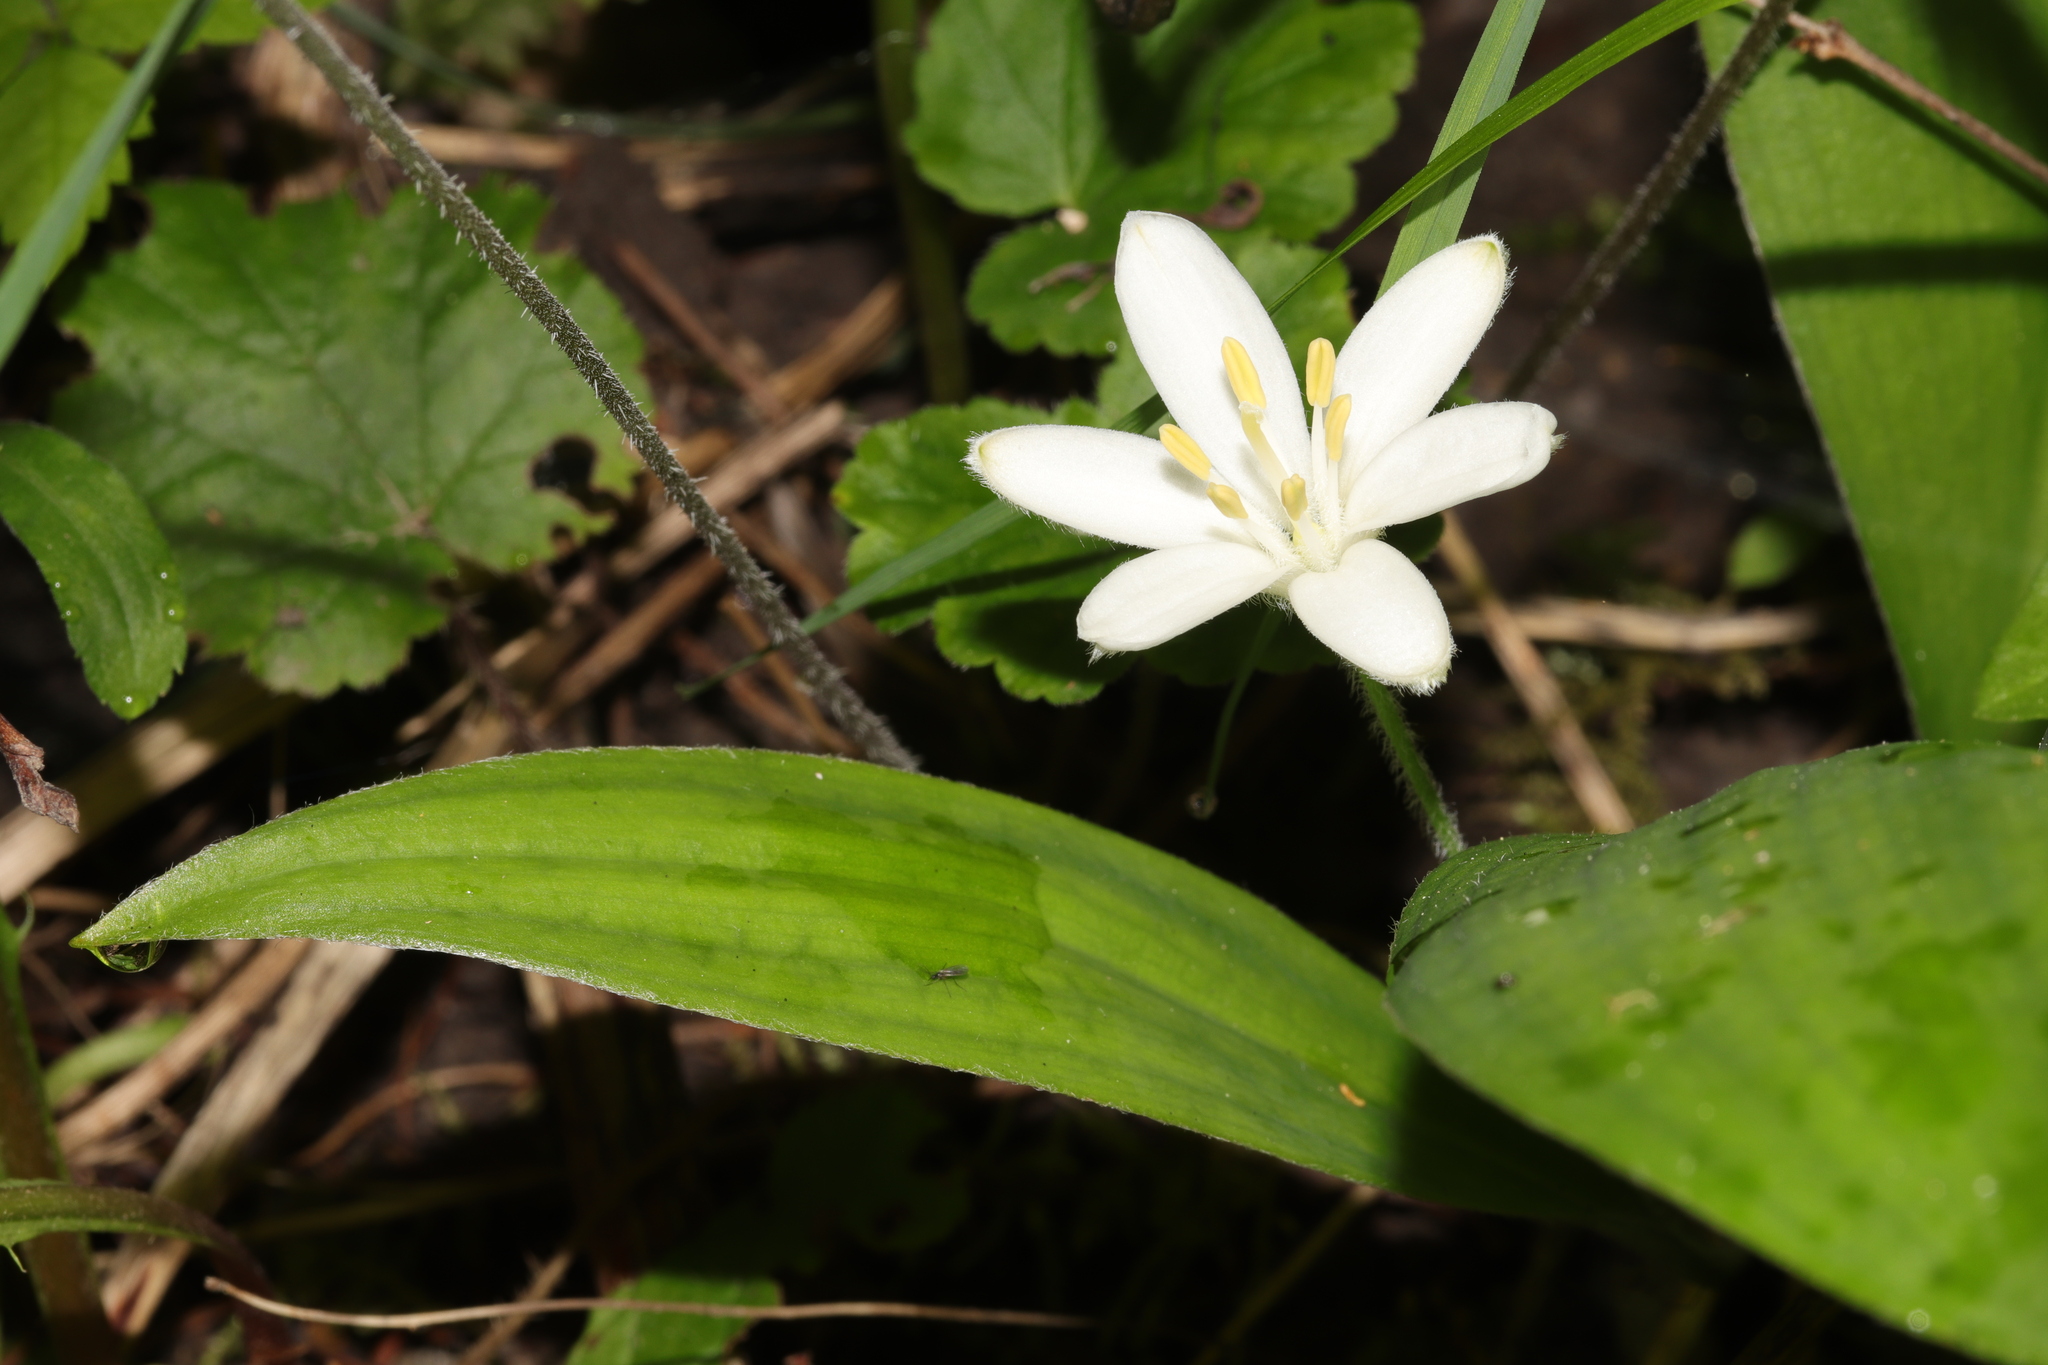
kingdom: Plantae
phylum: Tracheophyta
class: Liliopsida
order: Liliales
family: Liliaceae
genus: Clintonia
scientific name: Clintonia uniflora
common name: Queen's cup
